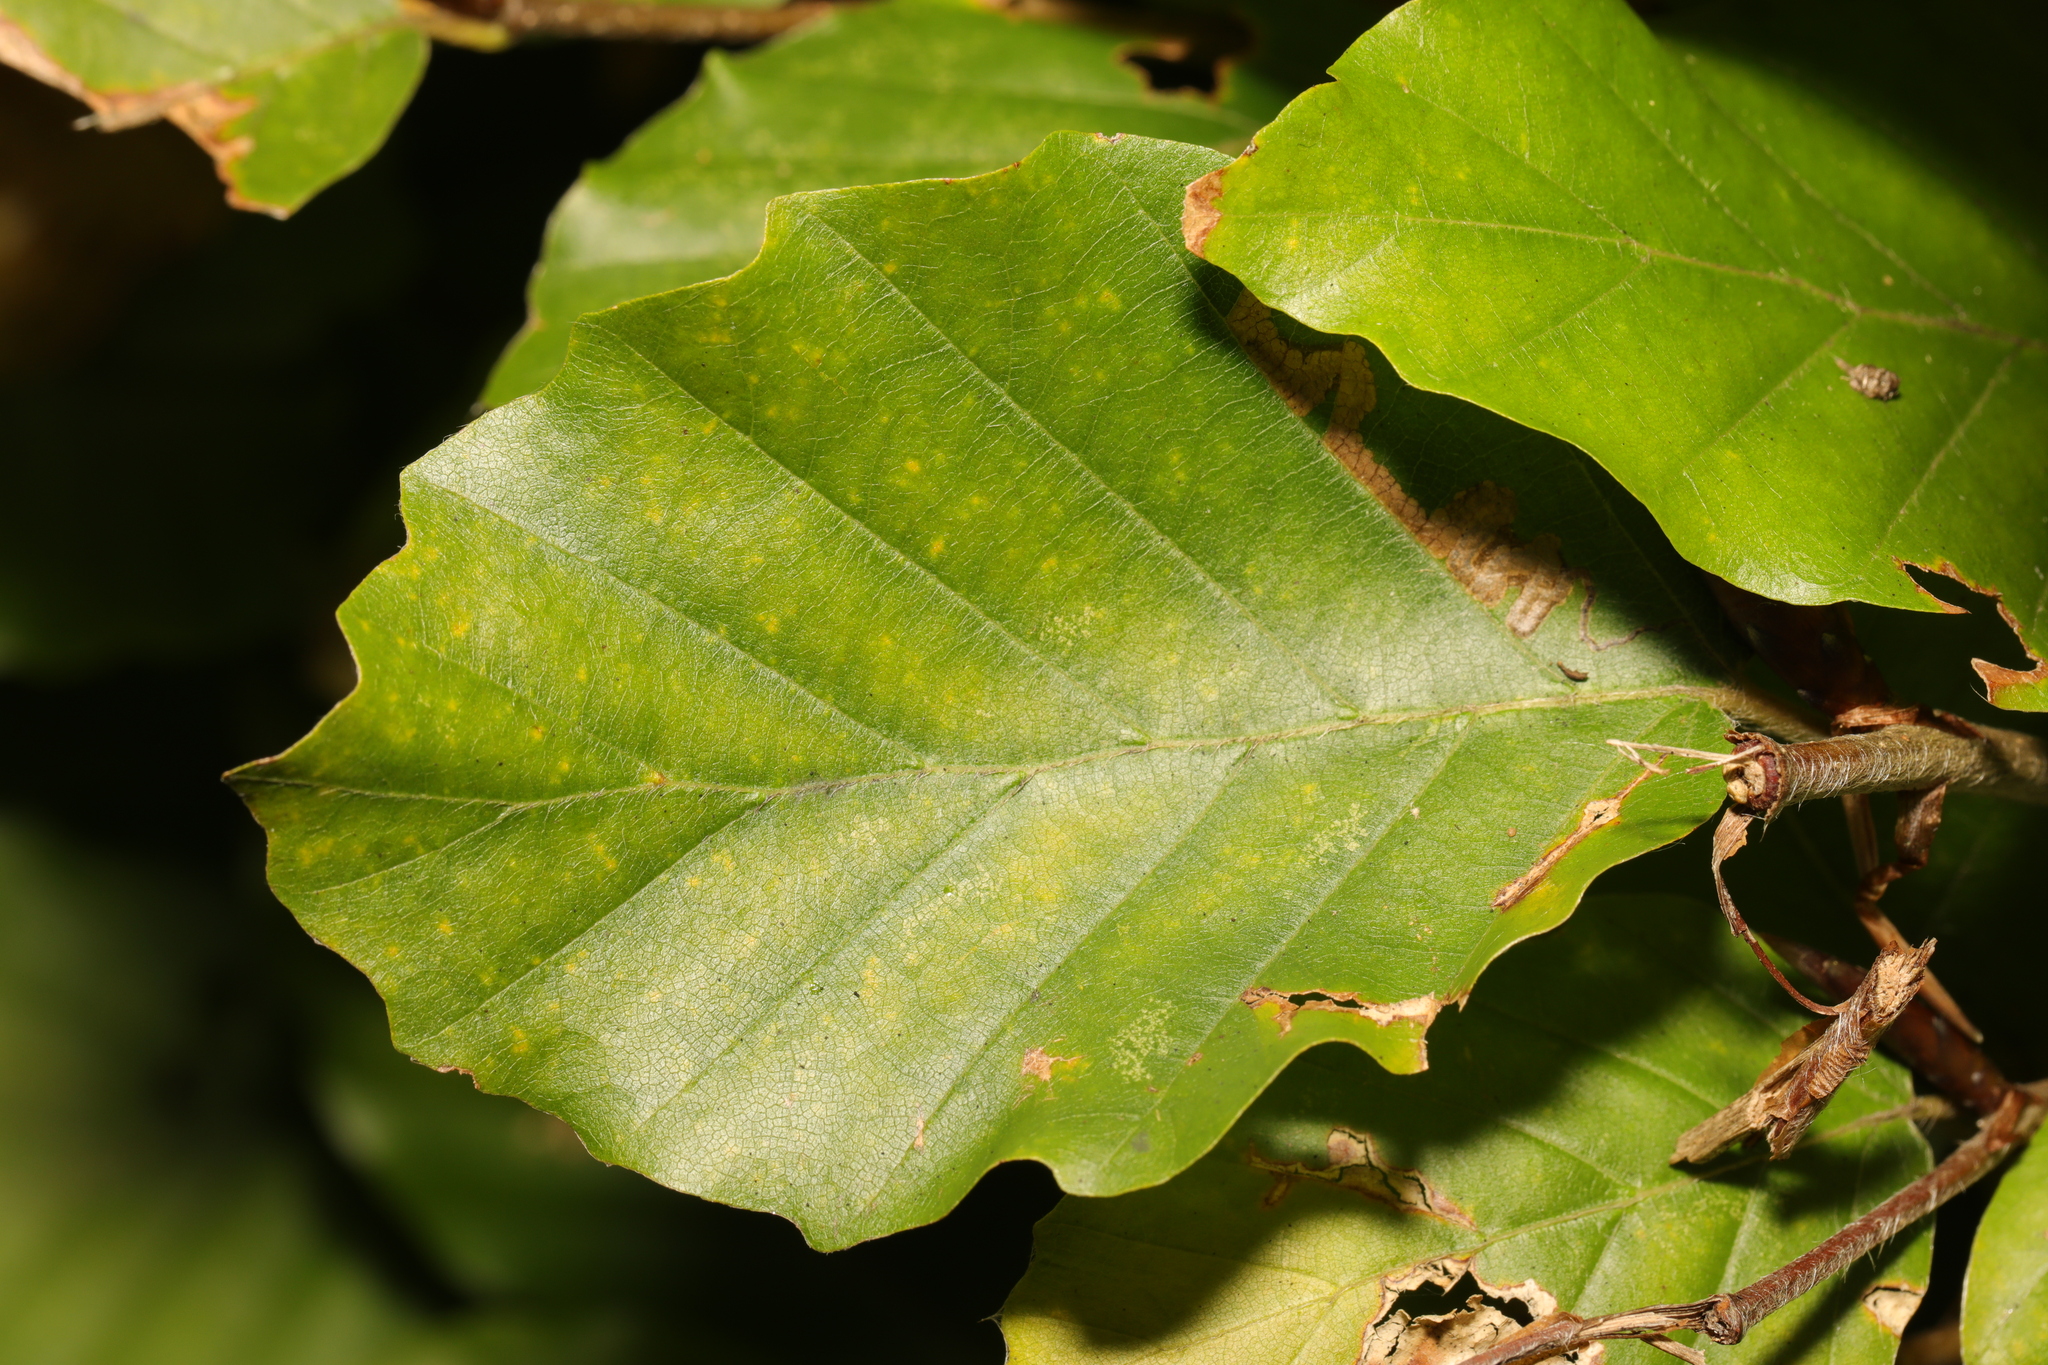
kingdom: Plantae
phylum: Tracheophyta
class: Magnoliopsida
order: Fagales
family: Fagaceae
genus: Fagus
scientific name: Fagus sylvatica
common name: Beech
